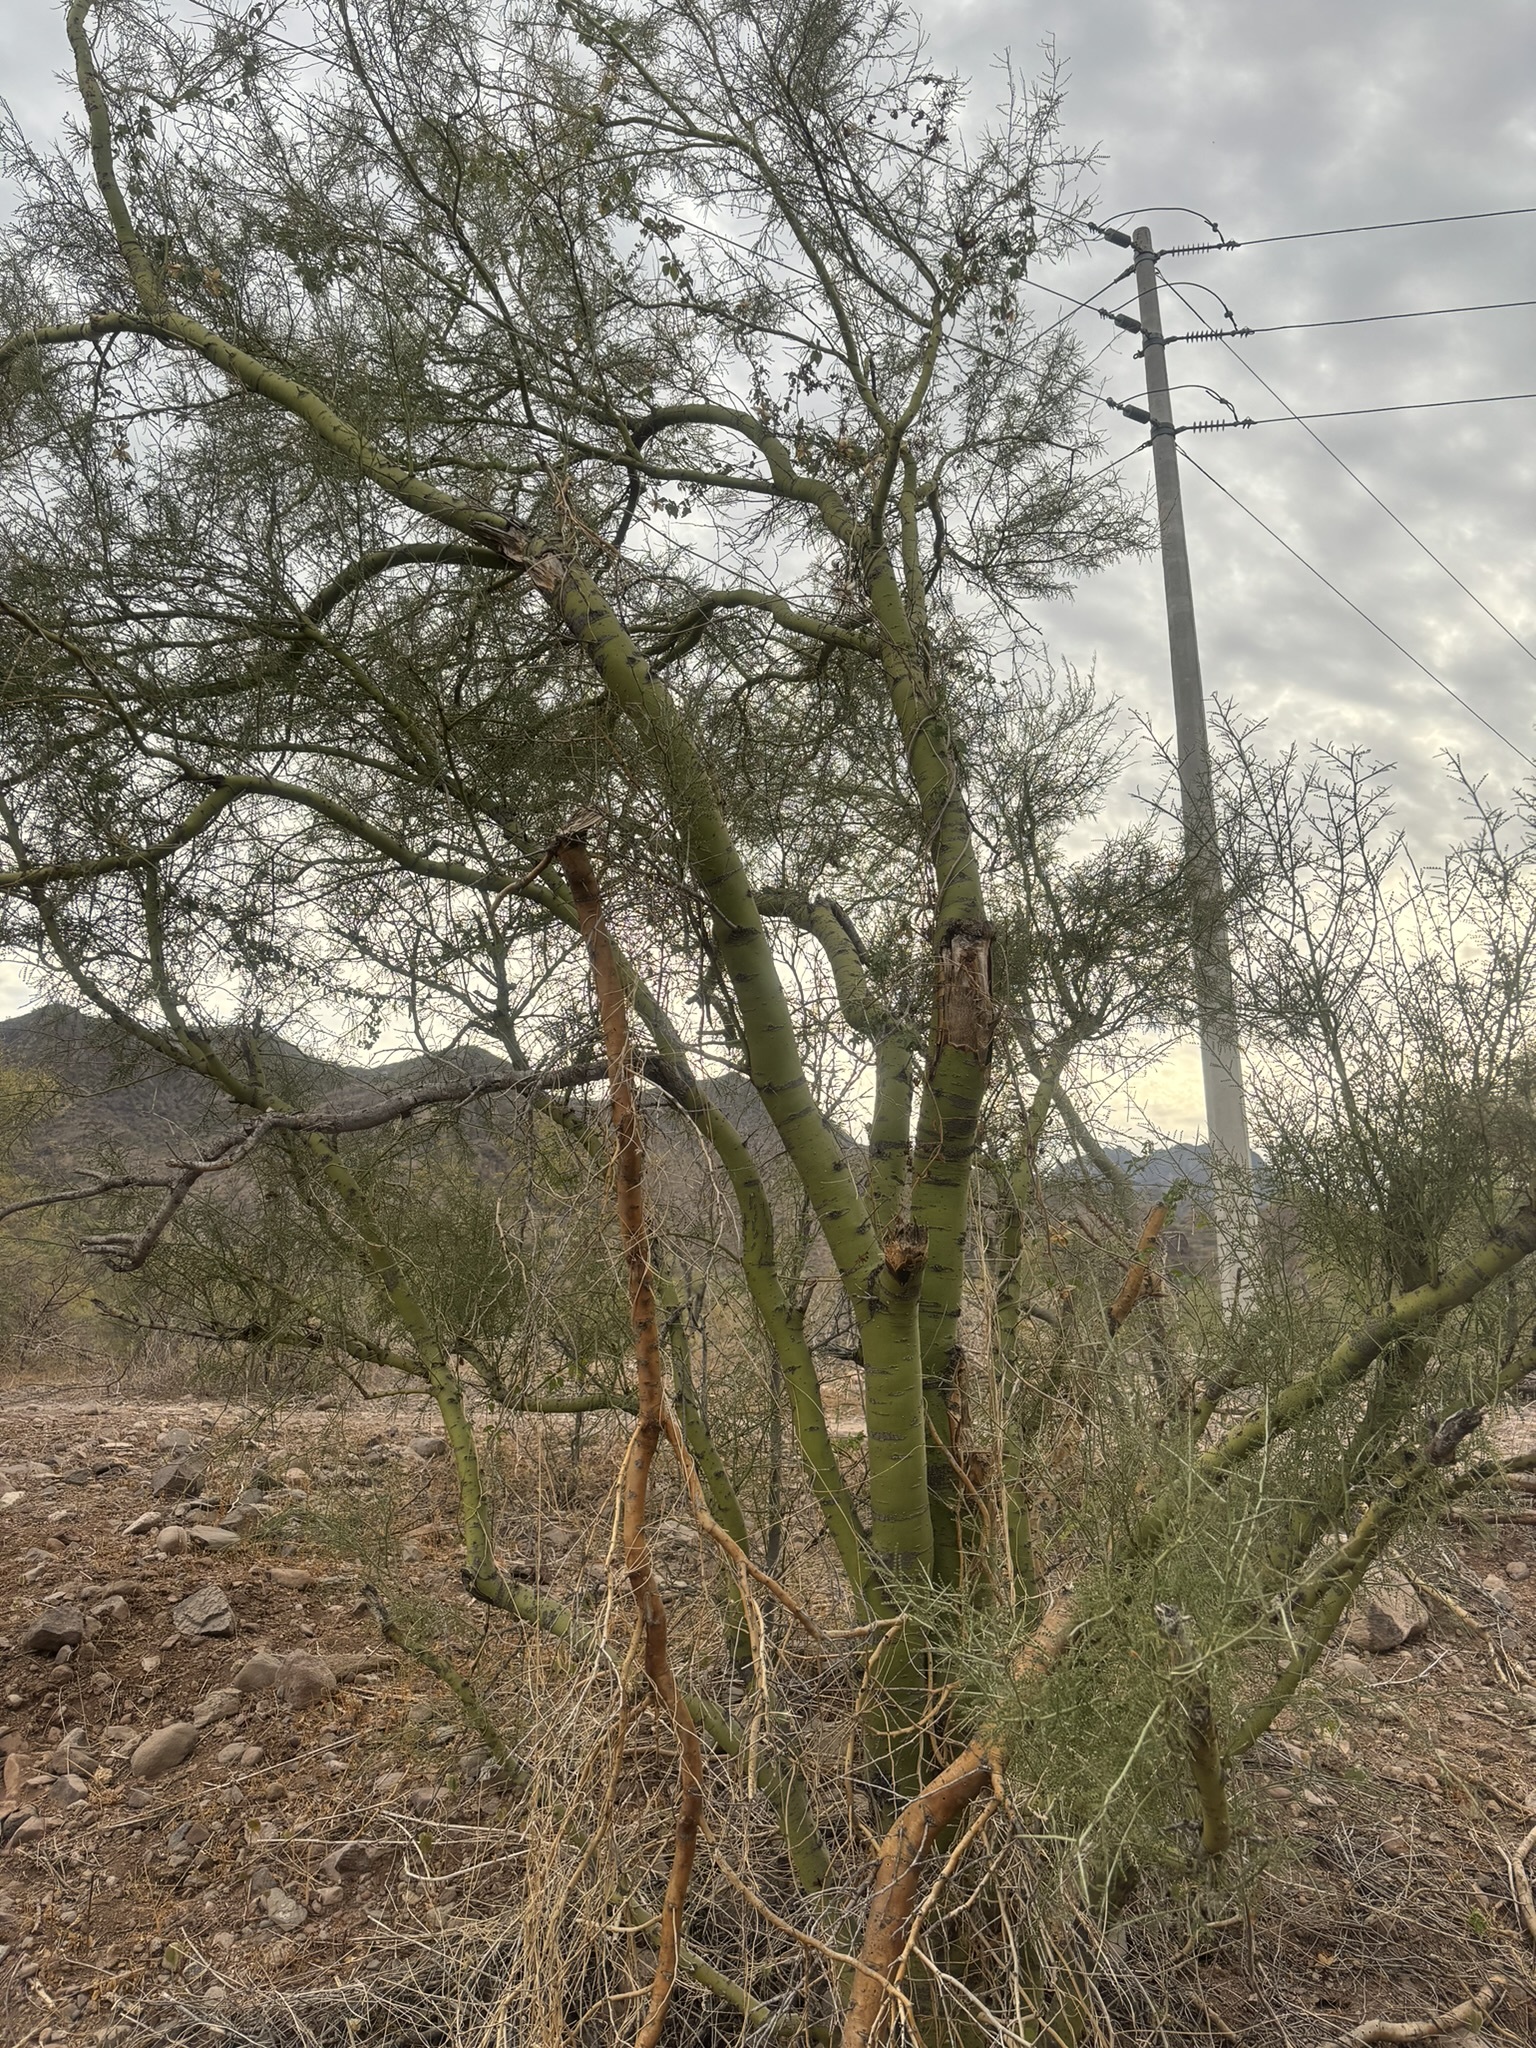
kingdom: Plantae
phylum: Tracheophyta
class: Magnoliopsida
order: Fabales
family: Fabaceae
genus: Parkinsonia
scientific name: Parkinsonia microphylla
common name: Yellow paloverde
